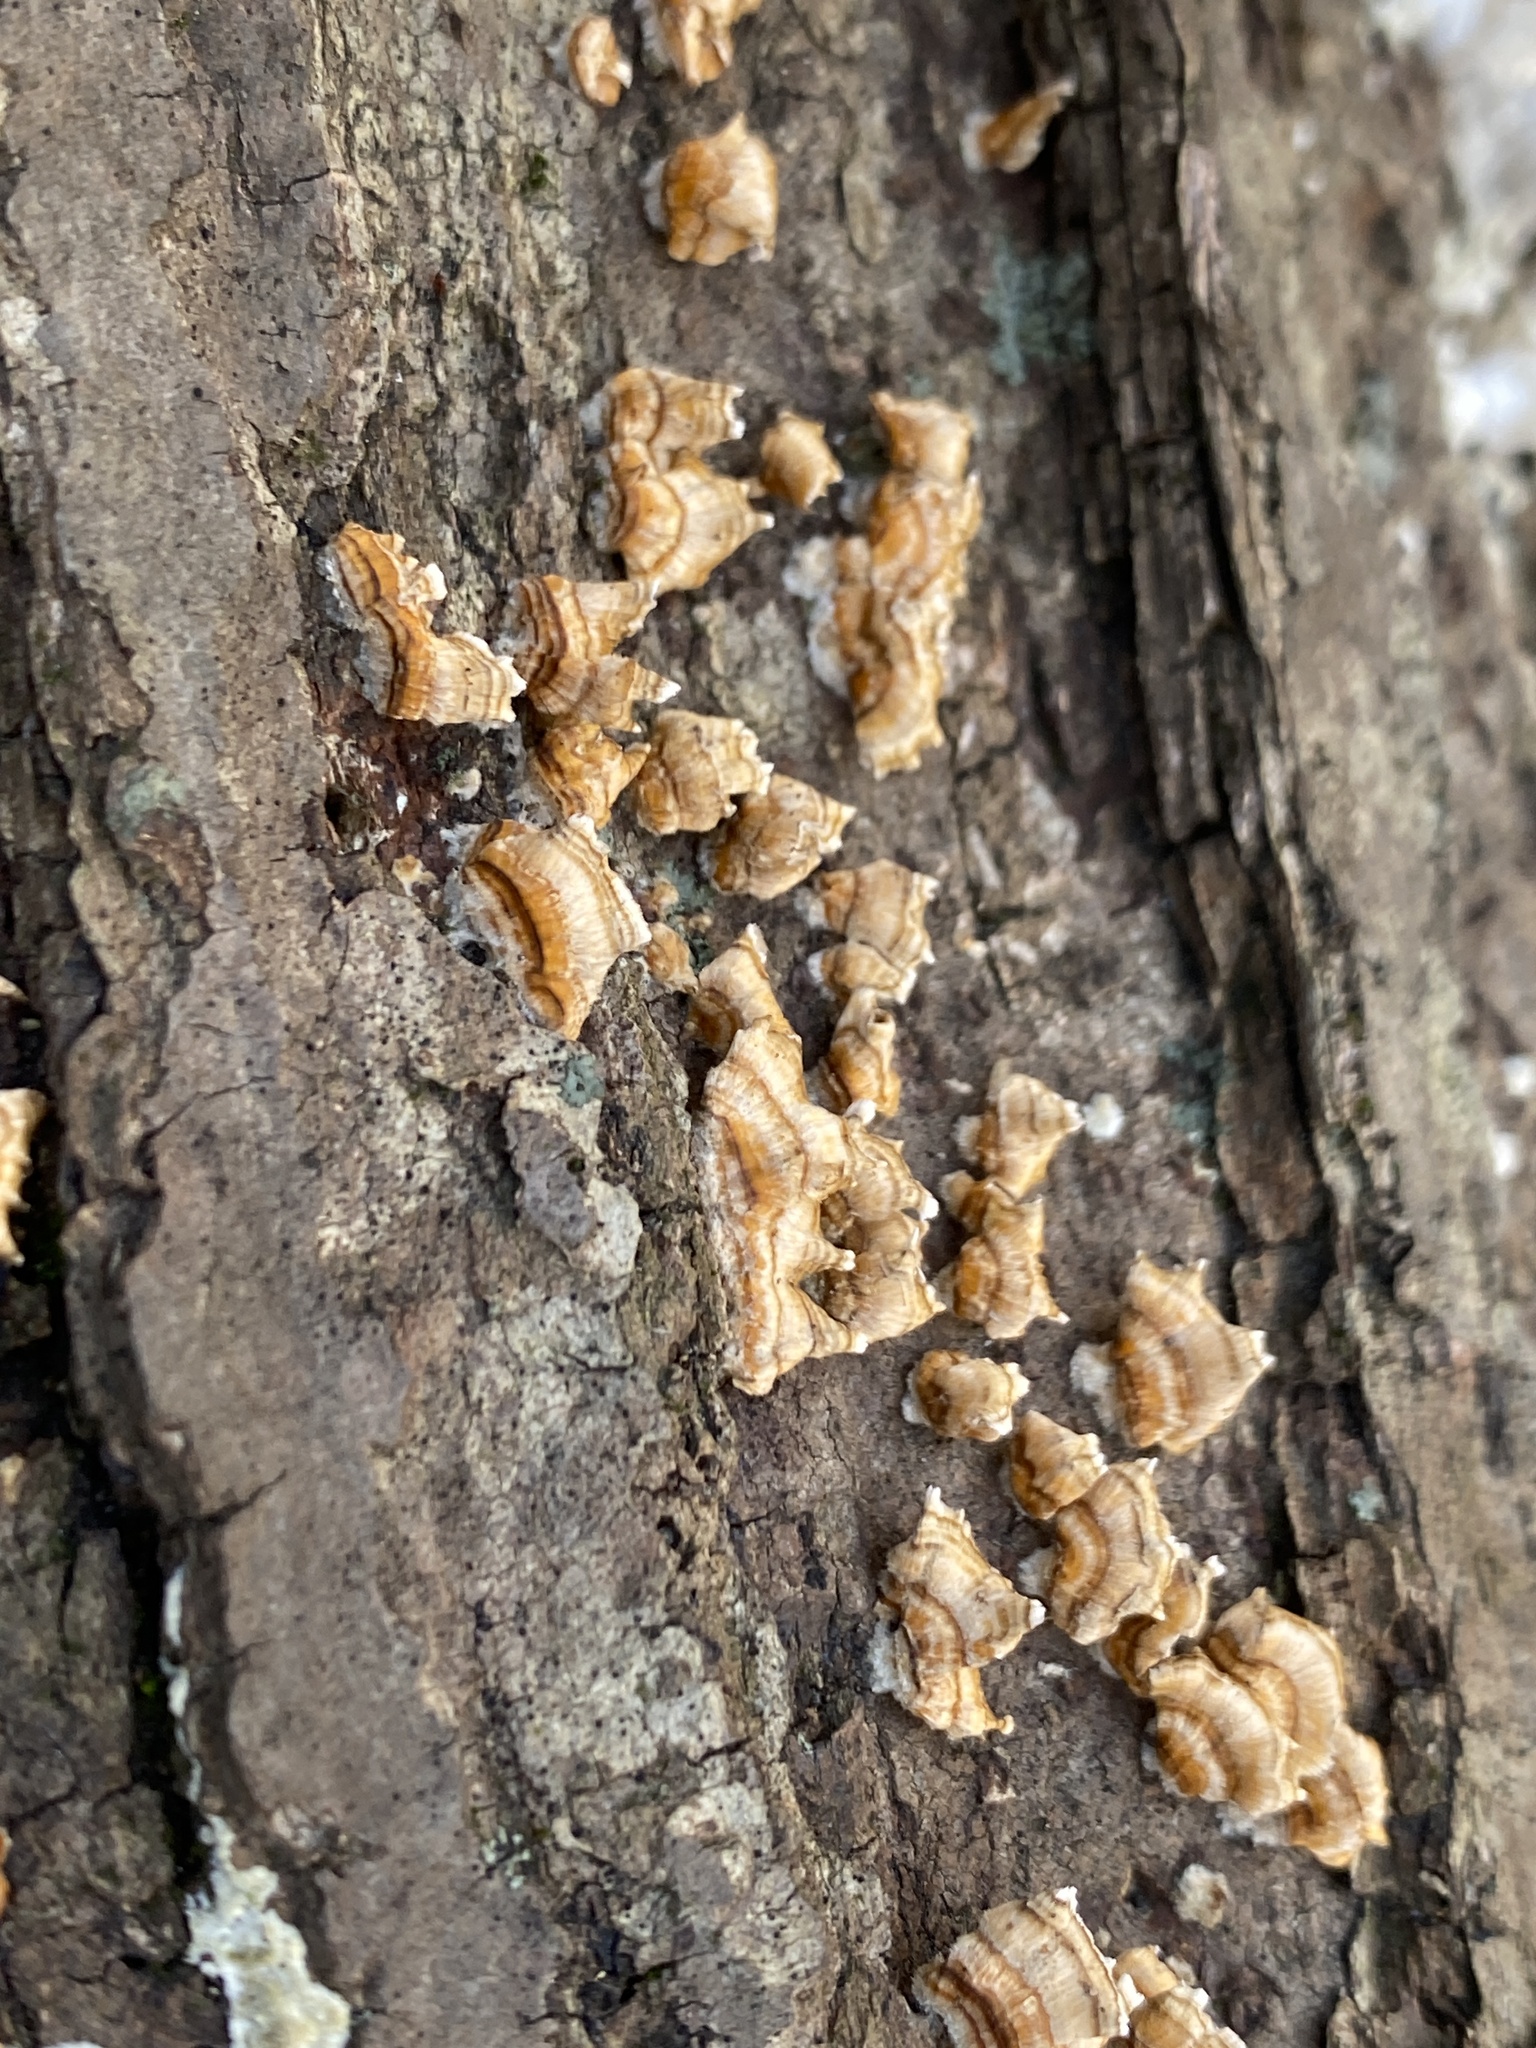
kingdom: Fungi
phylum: Basidiomycota
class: Agaricomycetes
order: Russulales
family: Stereaceae
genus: Stereum
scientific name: Stereum complicatum
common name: Crowded parchment
